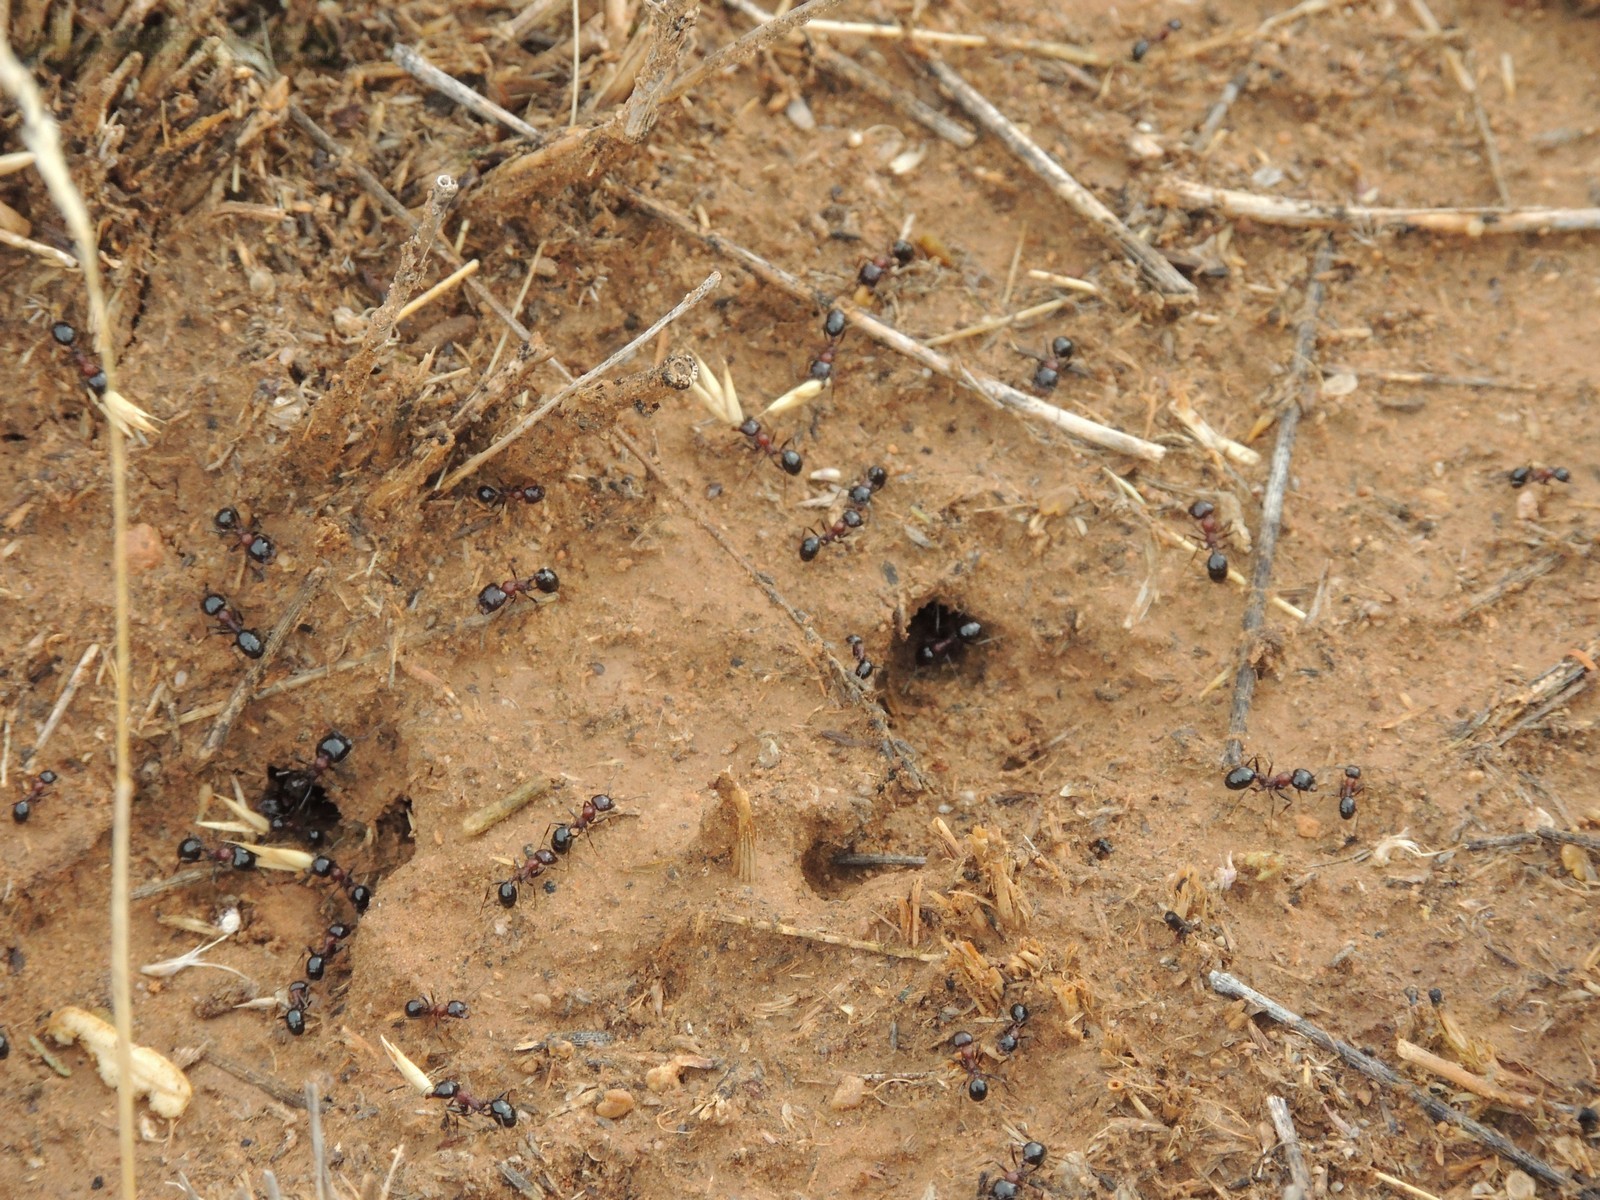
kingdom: Animalia
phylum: Arthropoda
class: Insecta
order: Hymenoptera
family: Formicidae
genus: Messor
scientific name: Messor denticulatus
